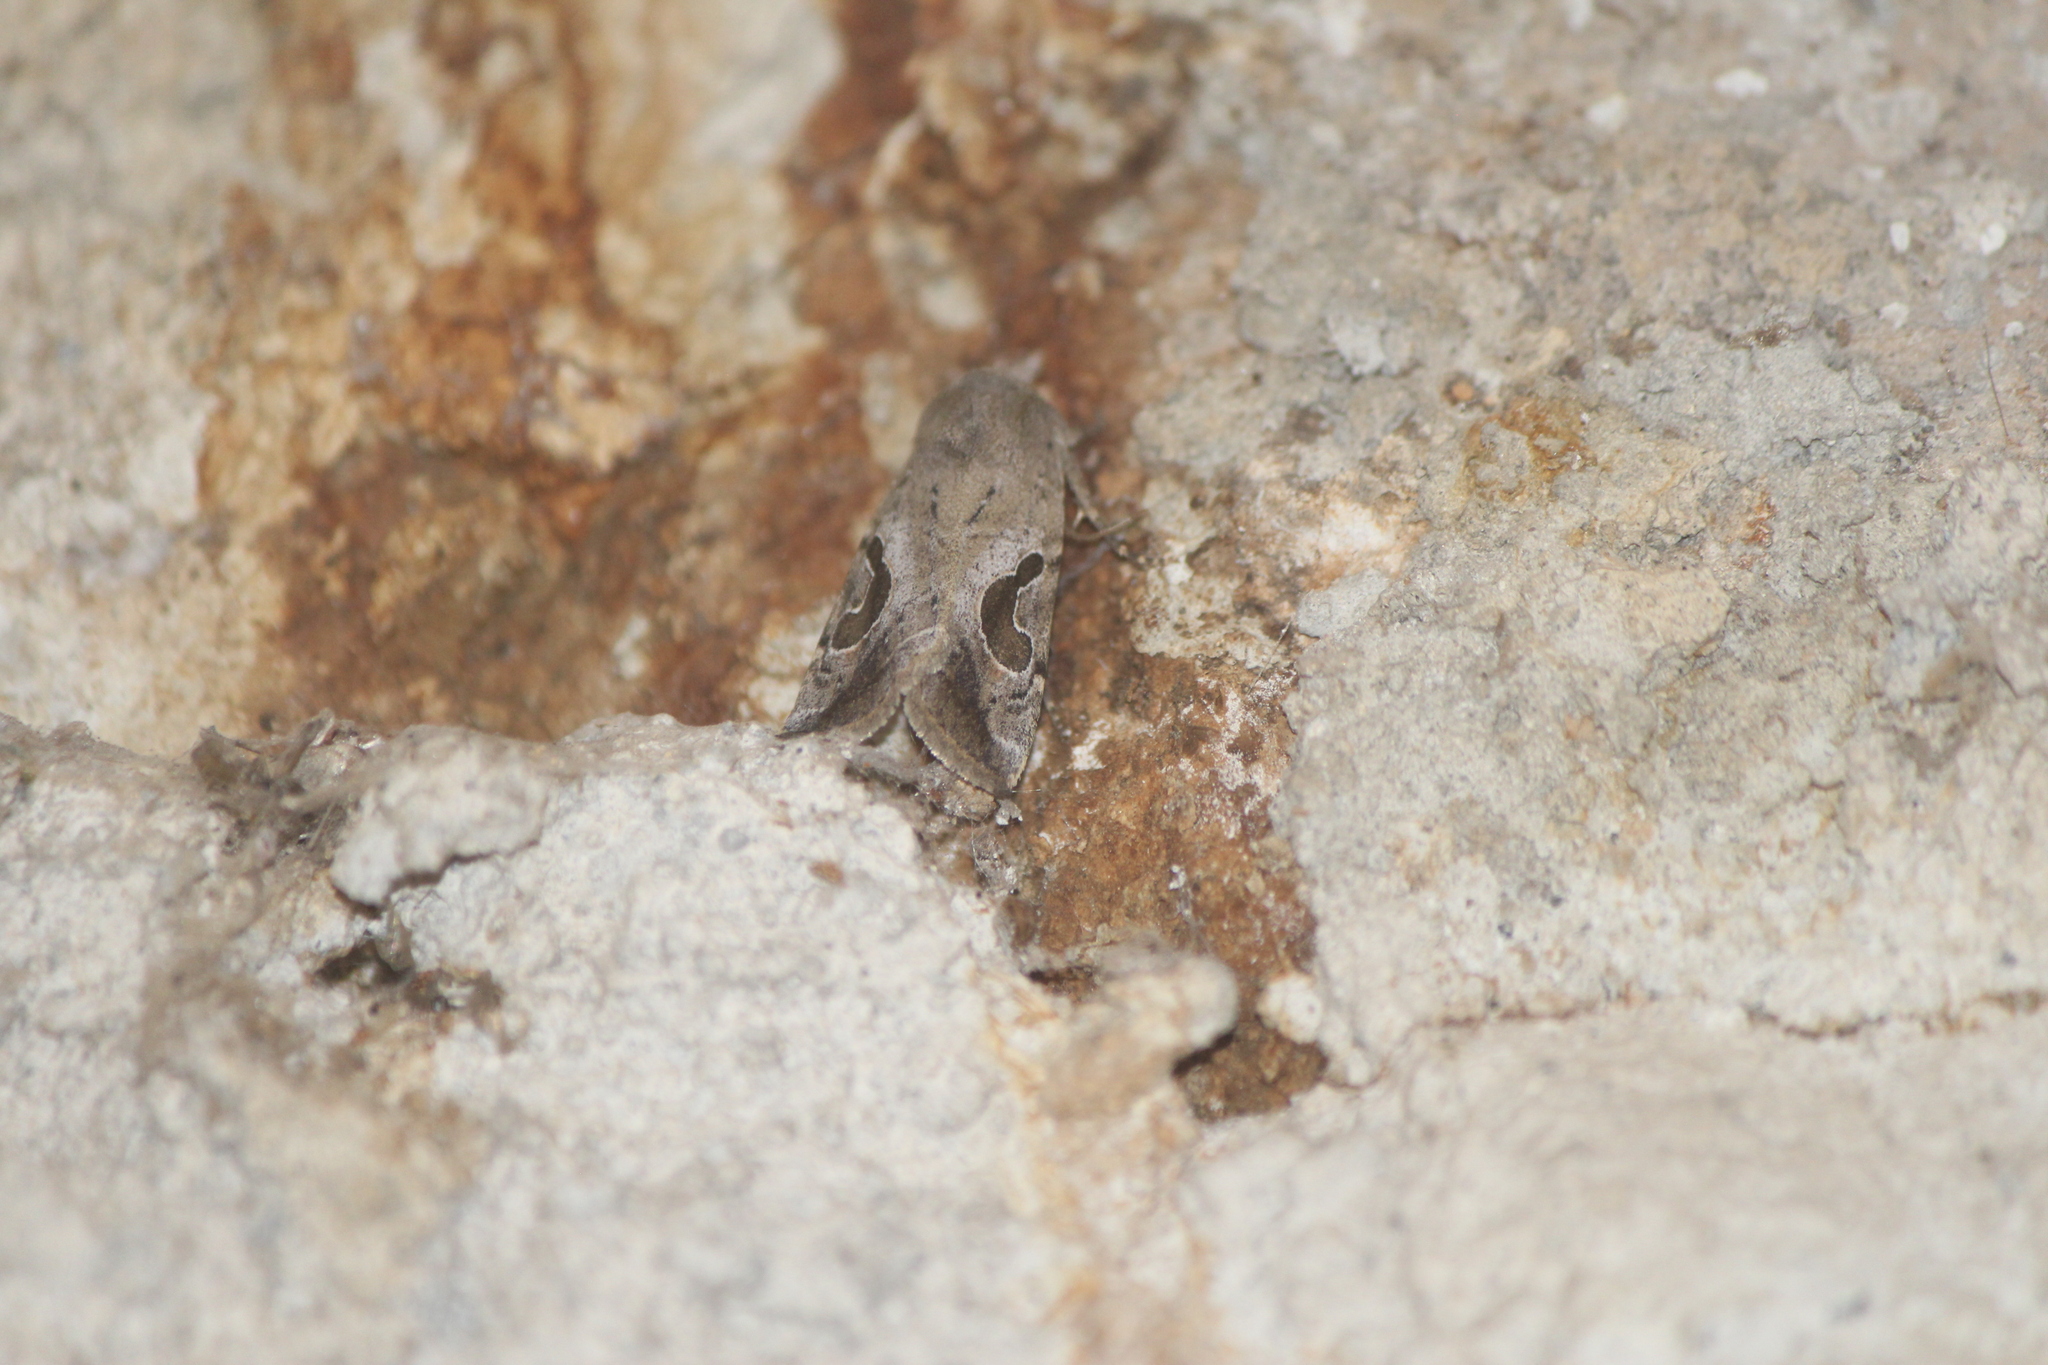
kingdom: Animalia
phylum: Arthropoda
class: Insecta
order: Lepidoptera
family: Noctuidae
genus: Eriopyga
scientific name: Eriopyga lunata
